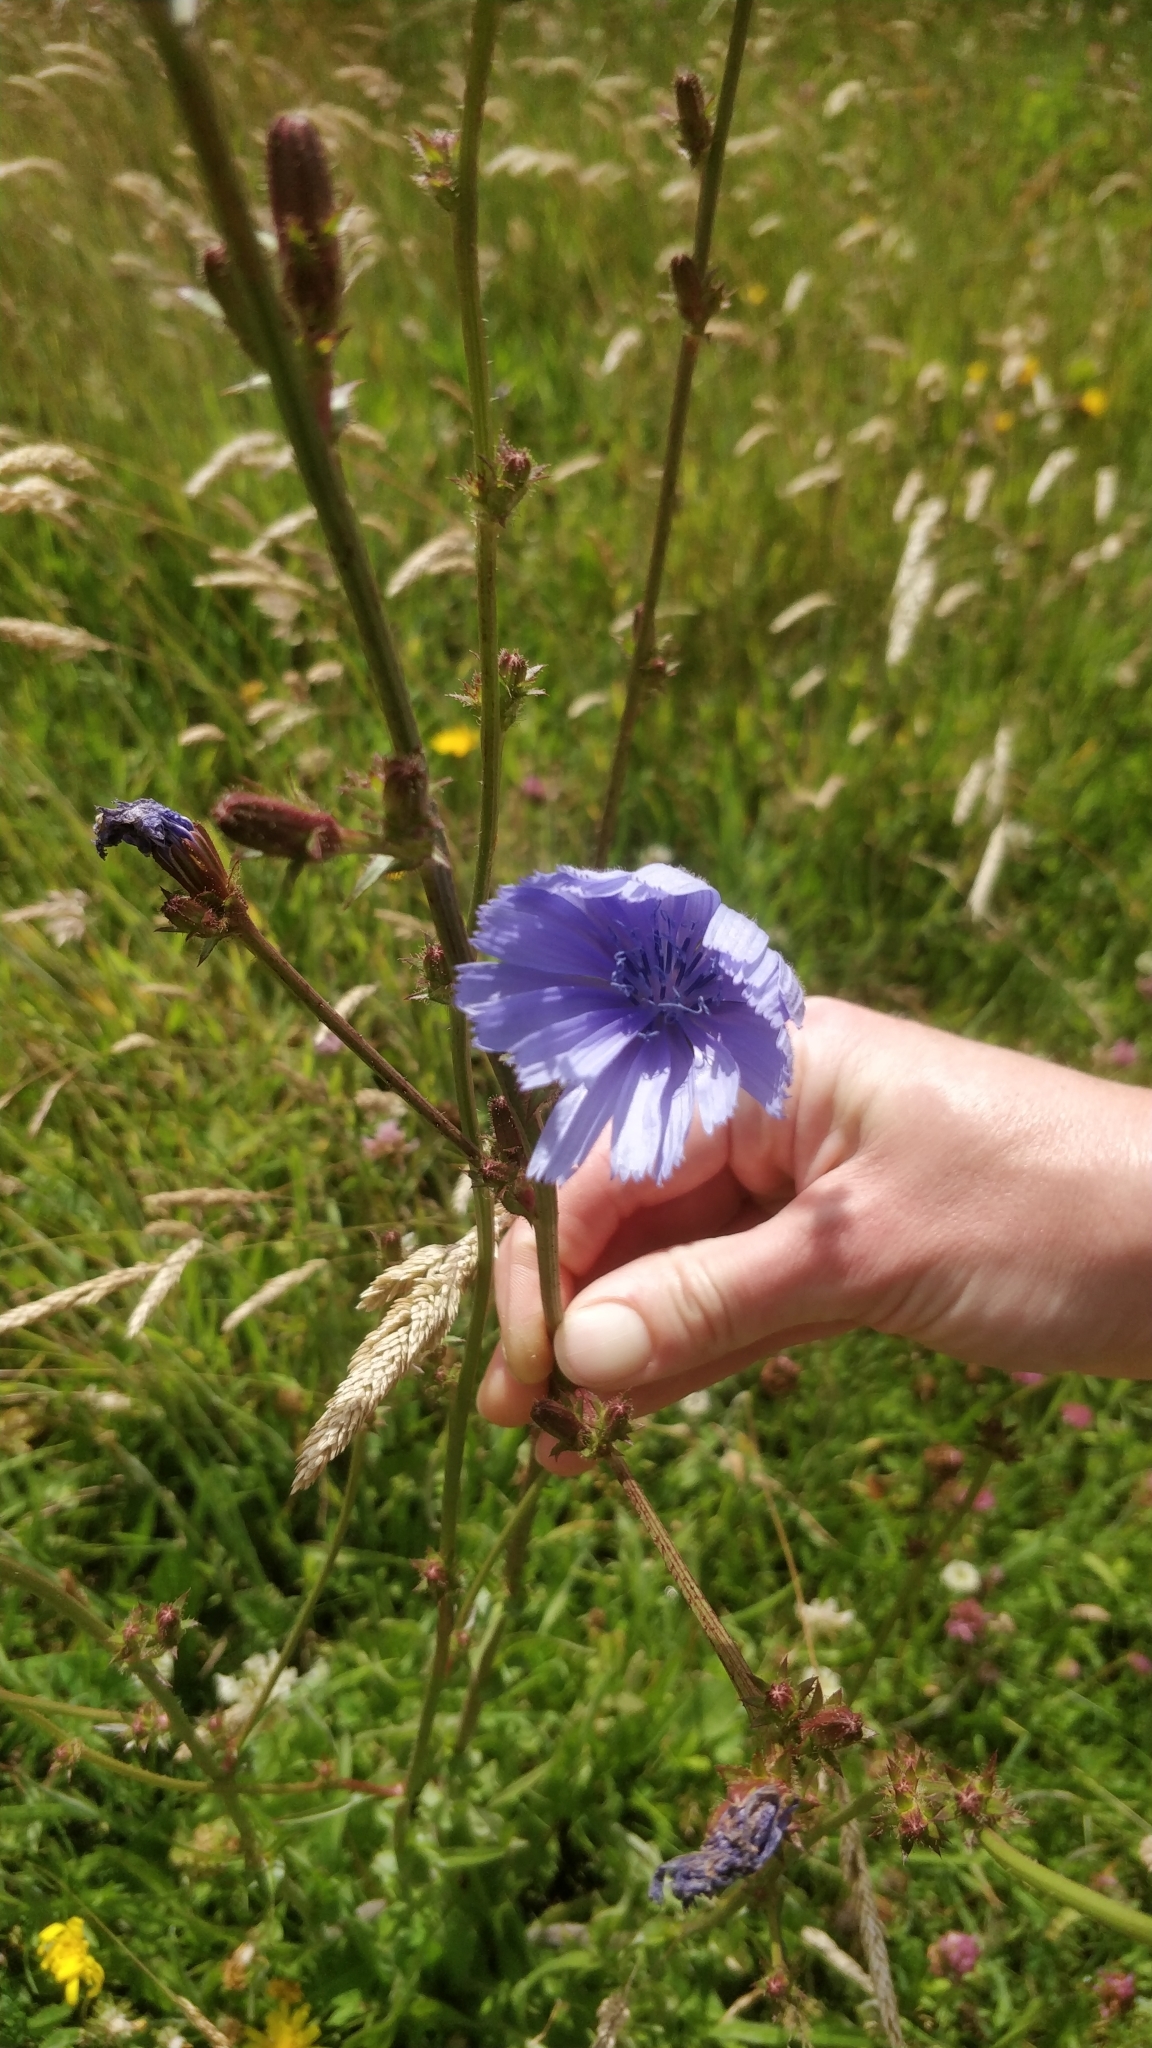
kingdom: Plantae
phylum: Tracheophyta
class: Magnoliopsida
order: Asterales
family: Asteraceae
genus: Cichorium
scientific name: Cichorium intybus
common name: Chicory
